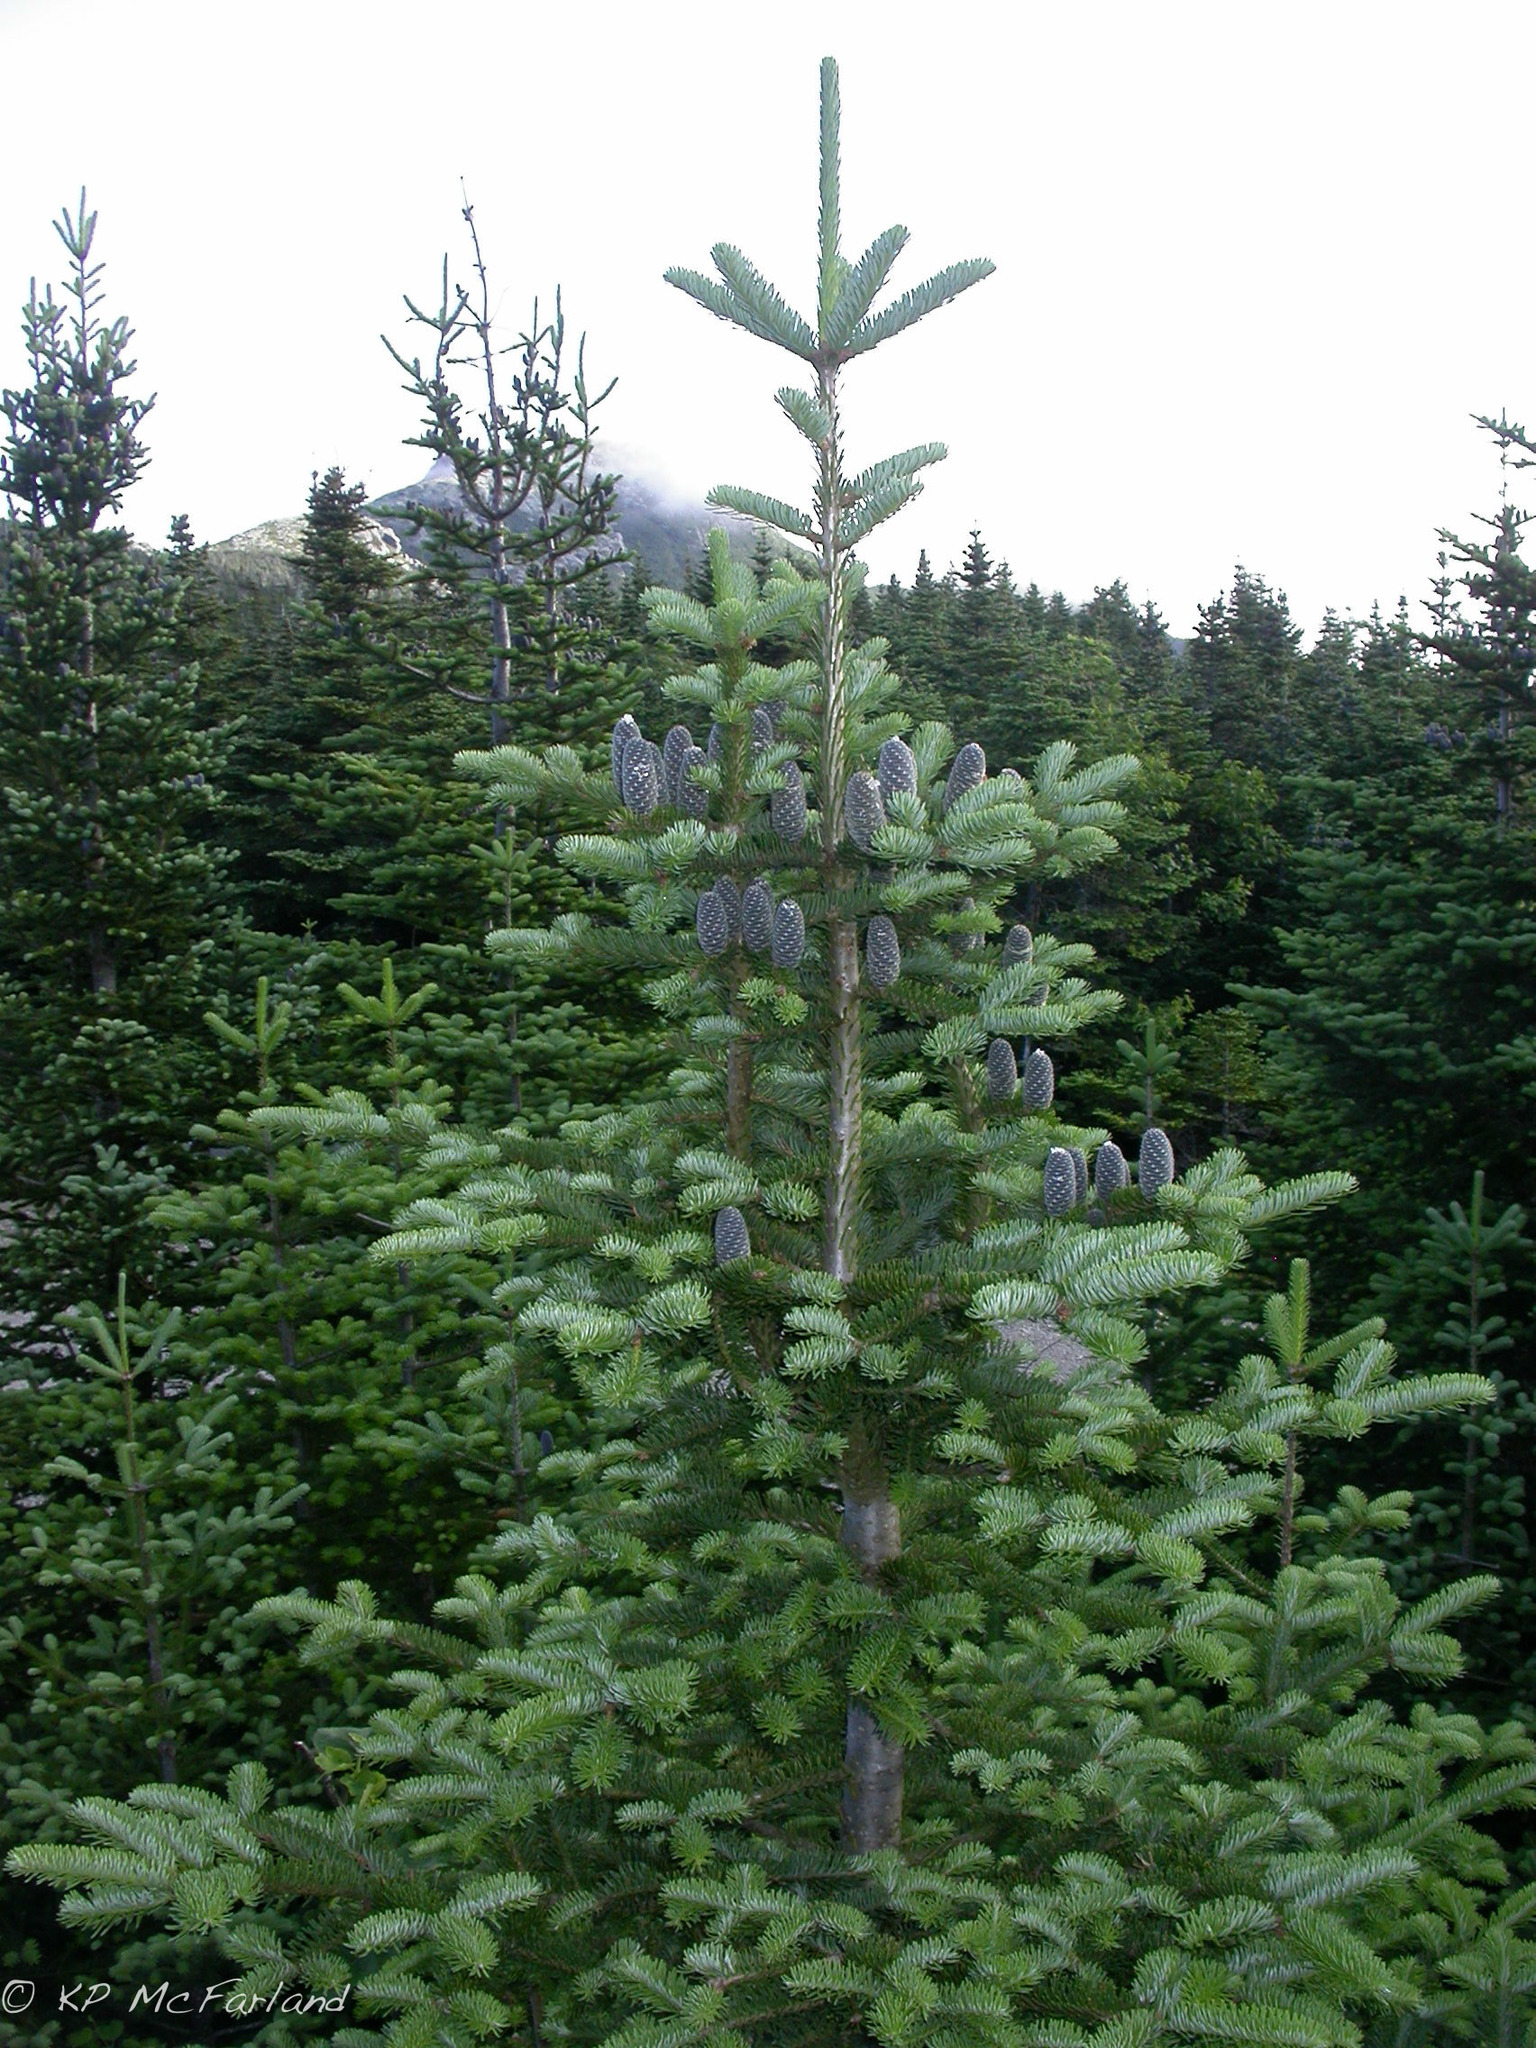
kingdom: Plantae
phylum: Tracheophyta
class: Pinopsida
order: Pinales
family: Pinaceae
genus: Abies
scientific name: Abies balsamea
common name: Balsam fir
